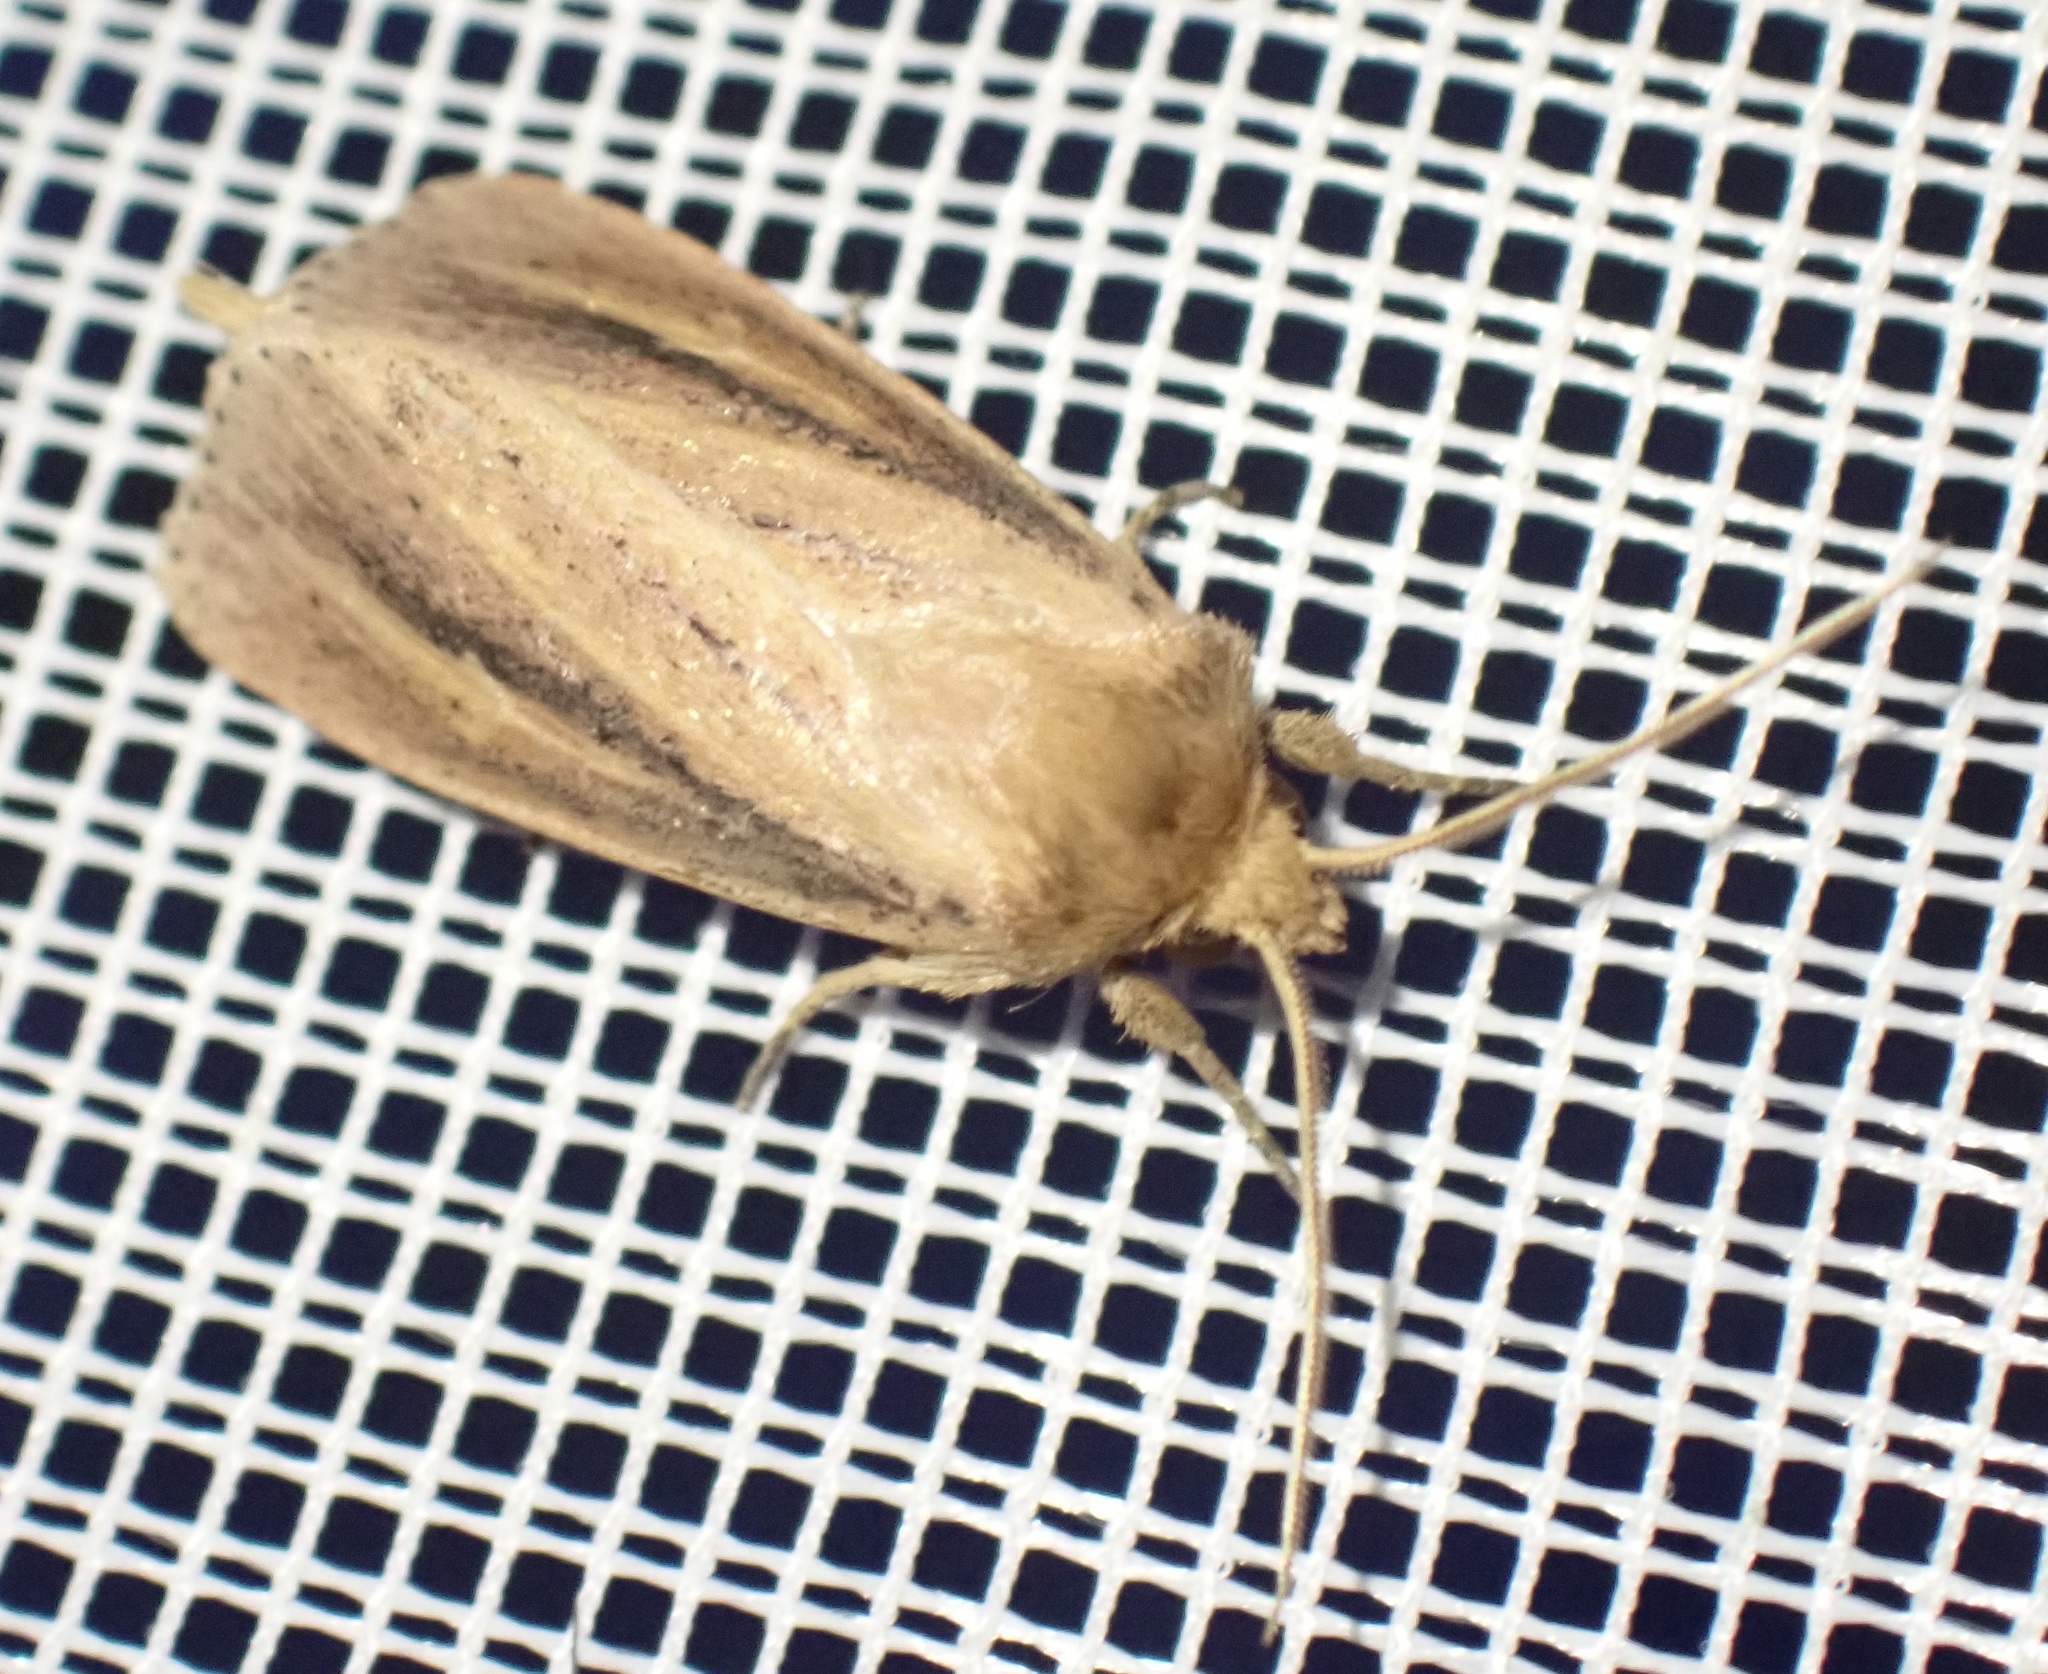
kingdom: Animalia
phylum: Arthropoda
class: Insecta
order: Lepidoptera
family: Noctuidae
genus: Globia
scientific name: Globia sparganii
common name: Webb's wainscot
